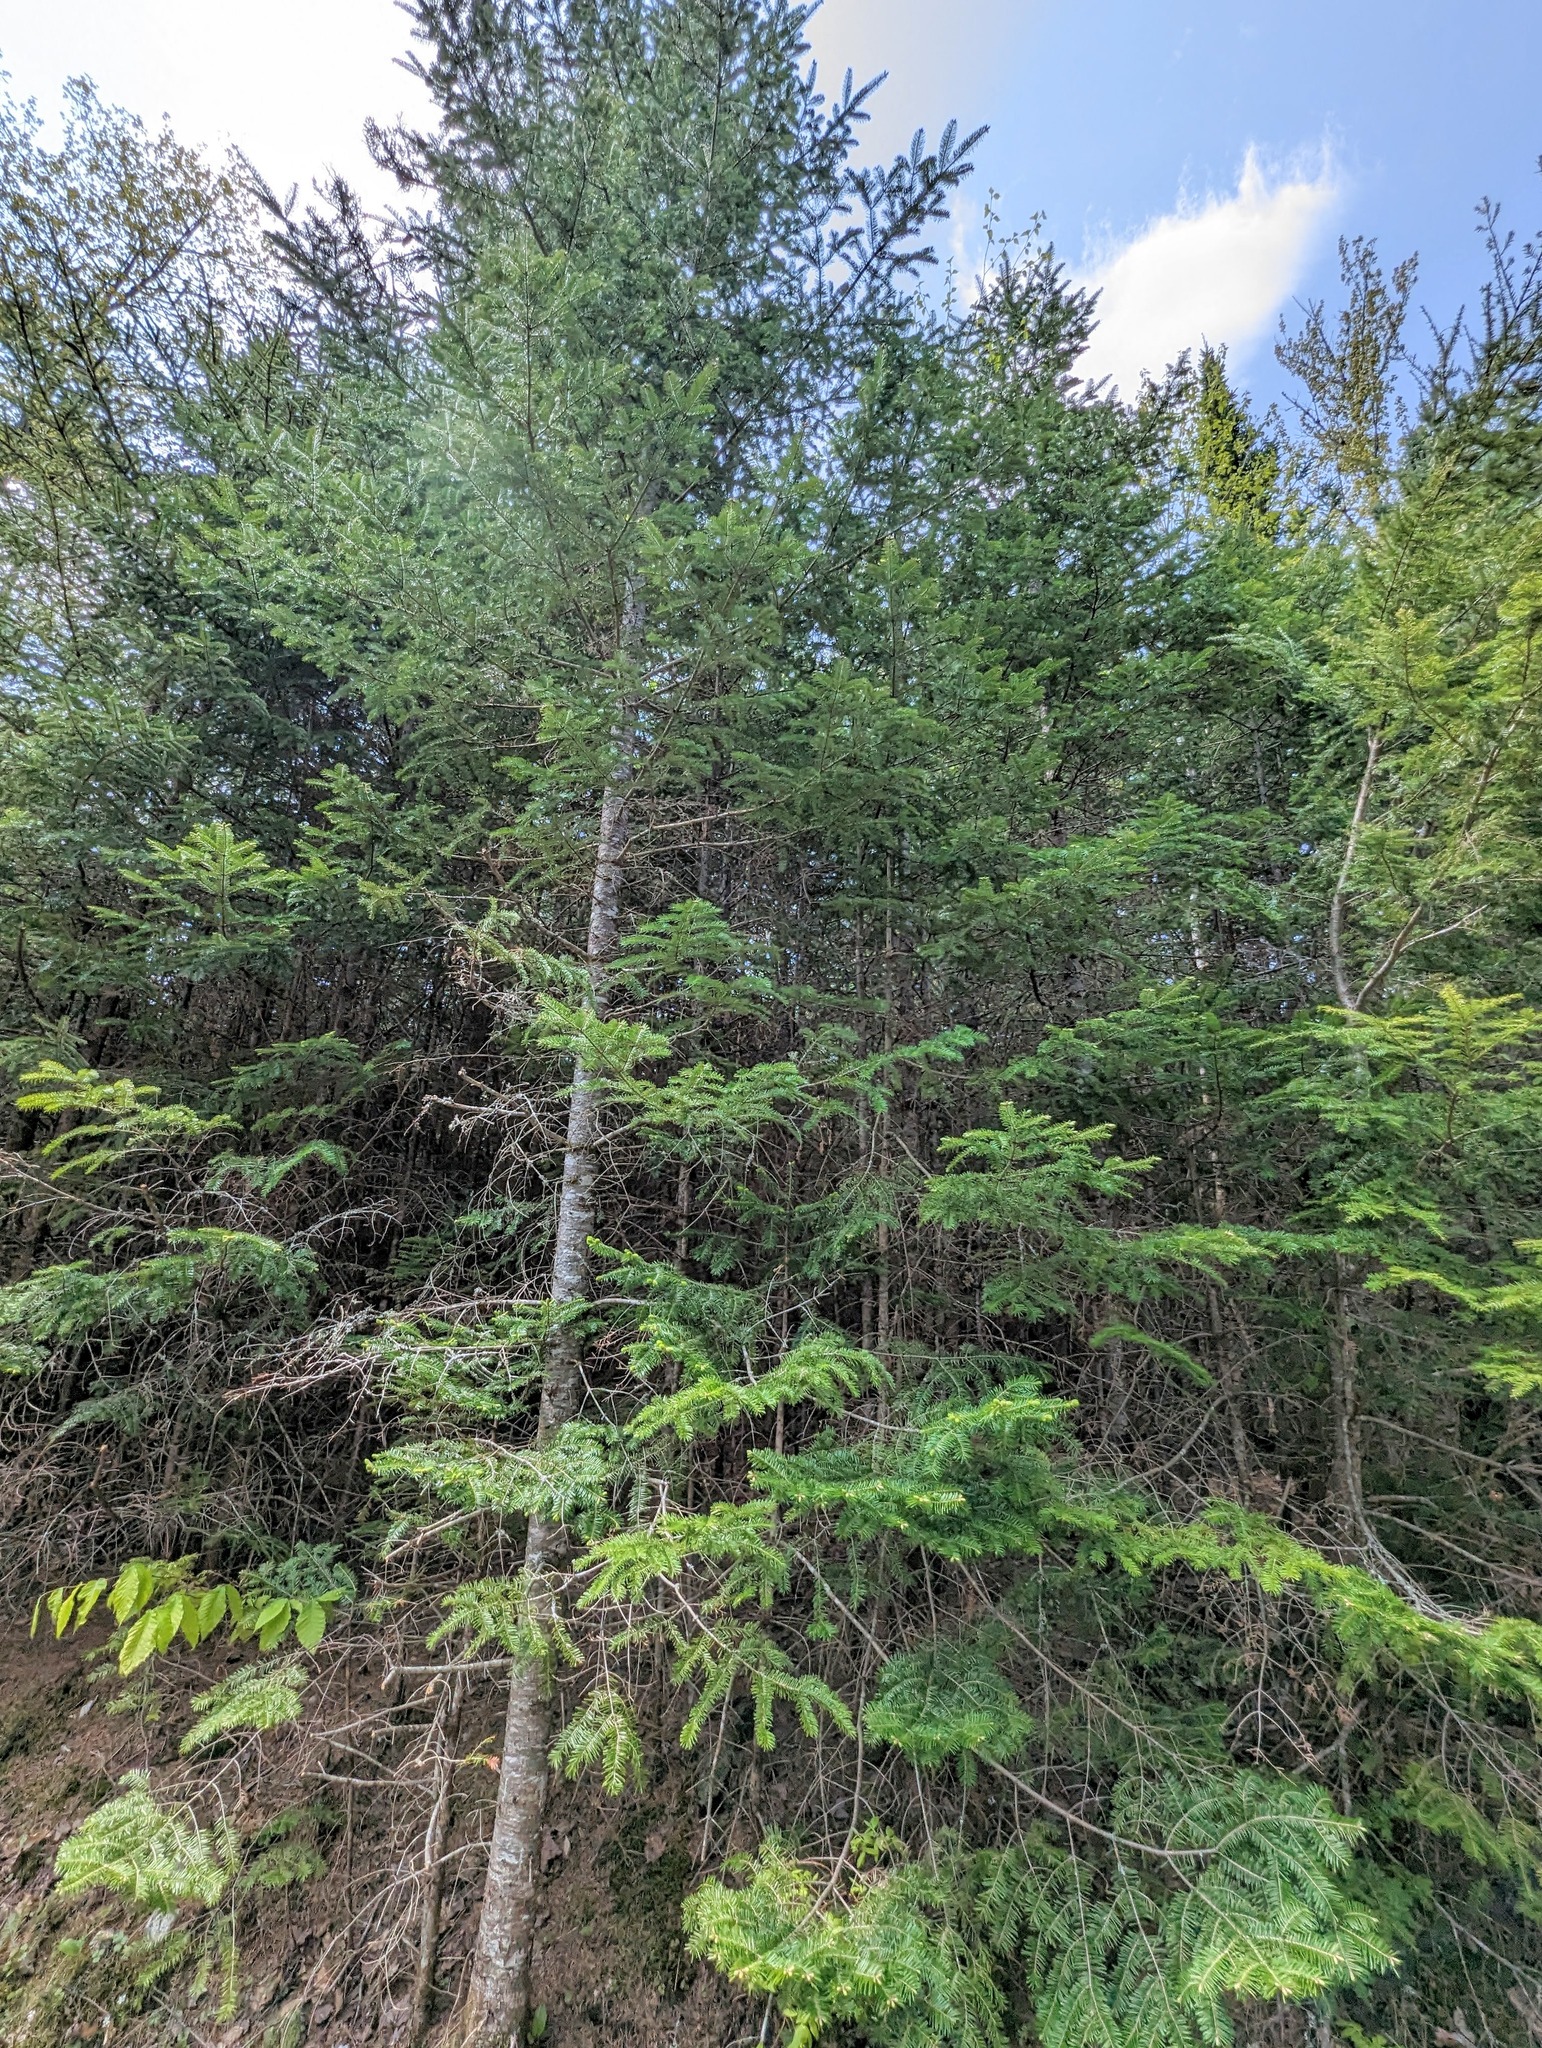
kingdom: Plantae
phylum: Tracheophyta
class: Pinopsida
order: Pinales
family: Pinaceae
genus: Abies
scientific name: Abies balsamea
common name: Balsam fir
